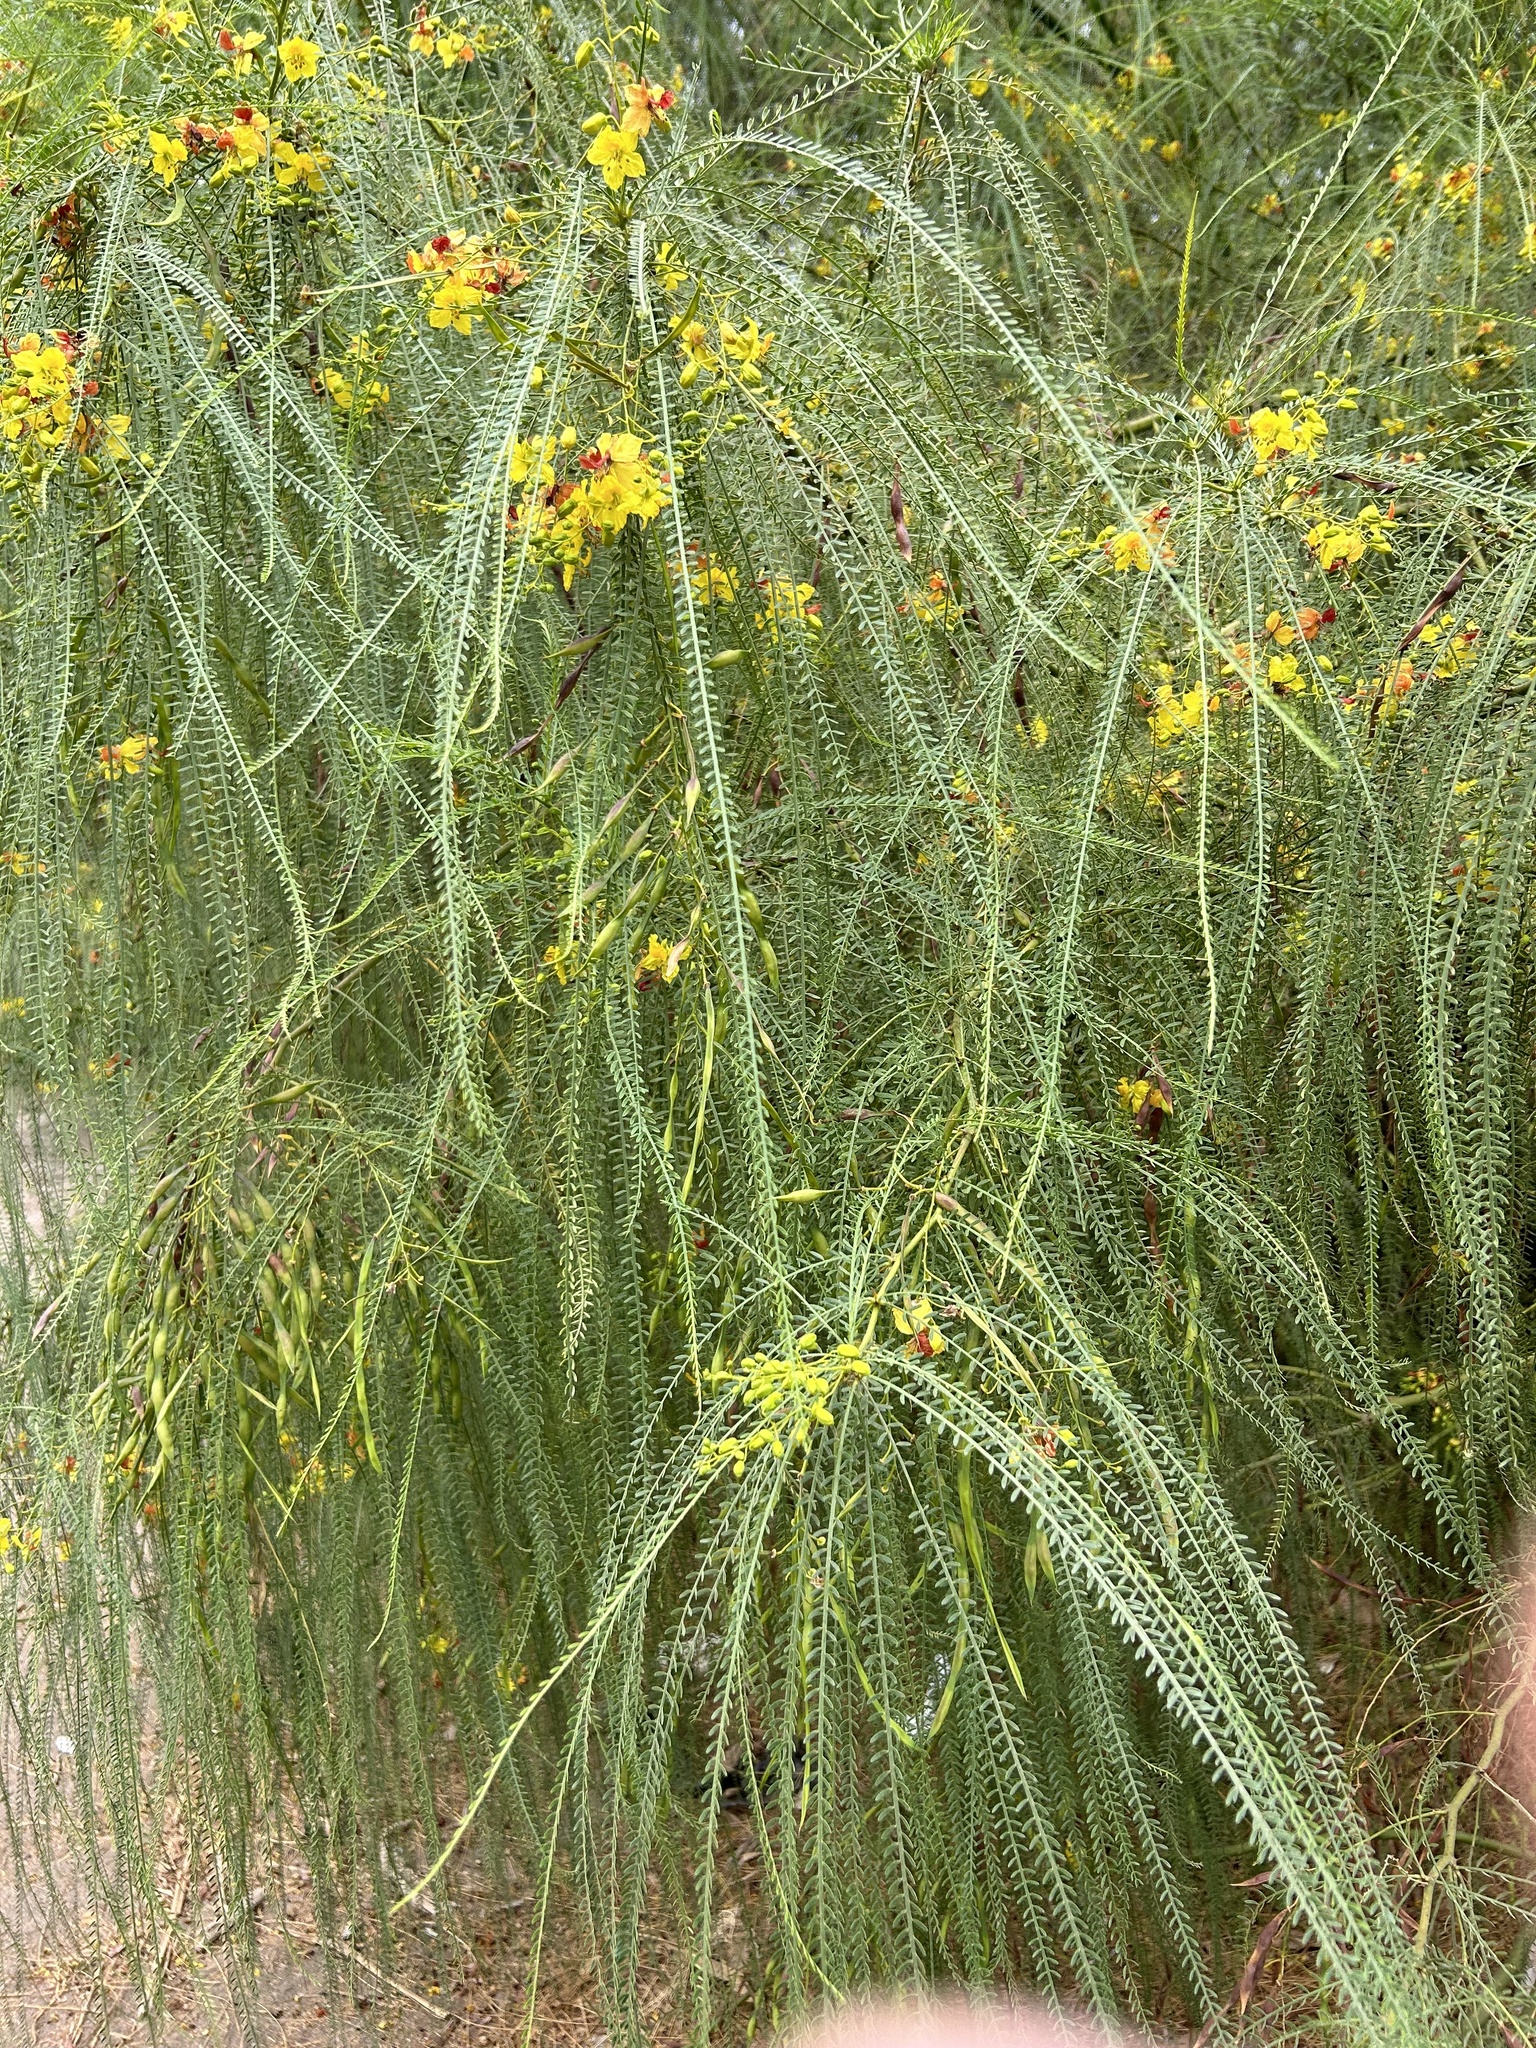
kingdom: Plantae
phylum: Tracheophyta
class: Magnoliopsida
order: Fabales
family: Fabaceae
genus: Parkinsonia
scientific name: Parkinsonia aculeata
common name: Jerusalem thorn
